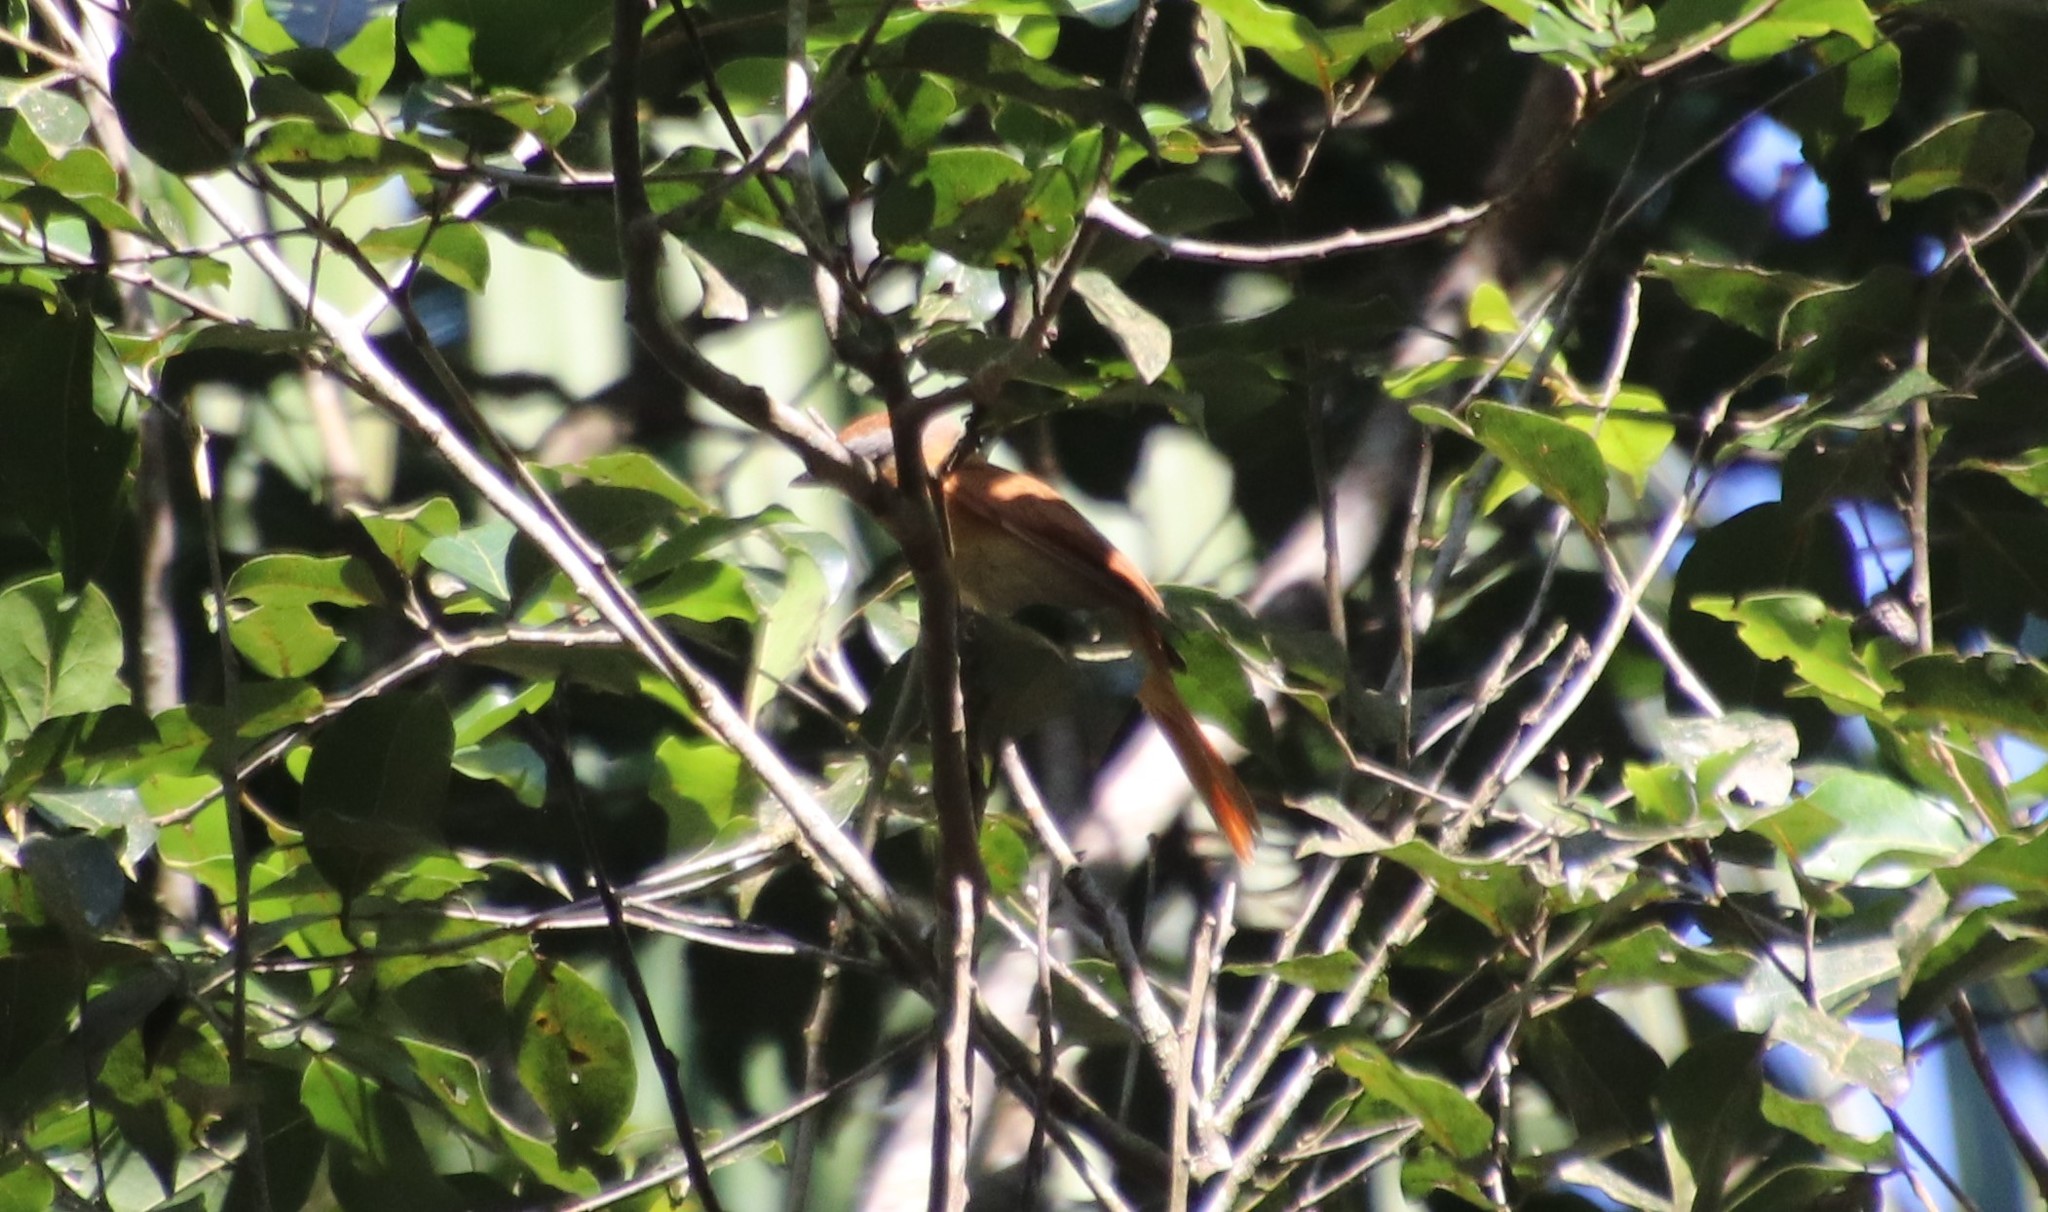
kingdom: Animalia
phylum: Chordata
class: Aves
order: Passeriformes
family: Cotingidae
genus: Pachyramphus
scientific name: Pachyramphus castaneus
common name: Chestnut-crowned becard
